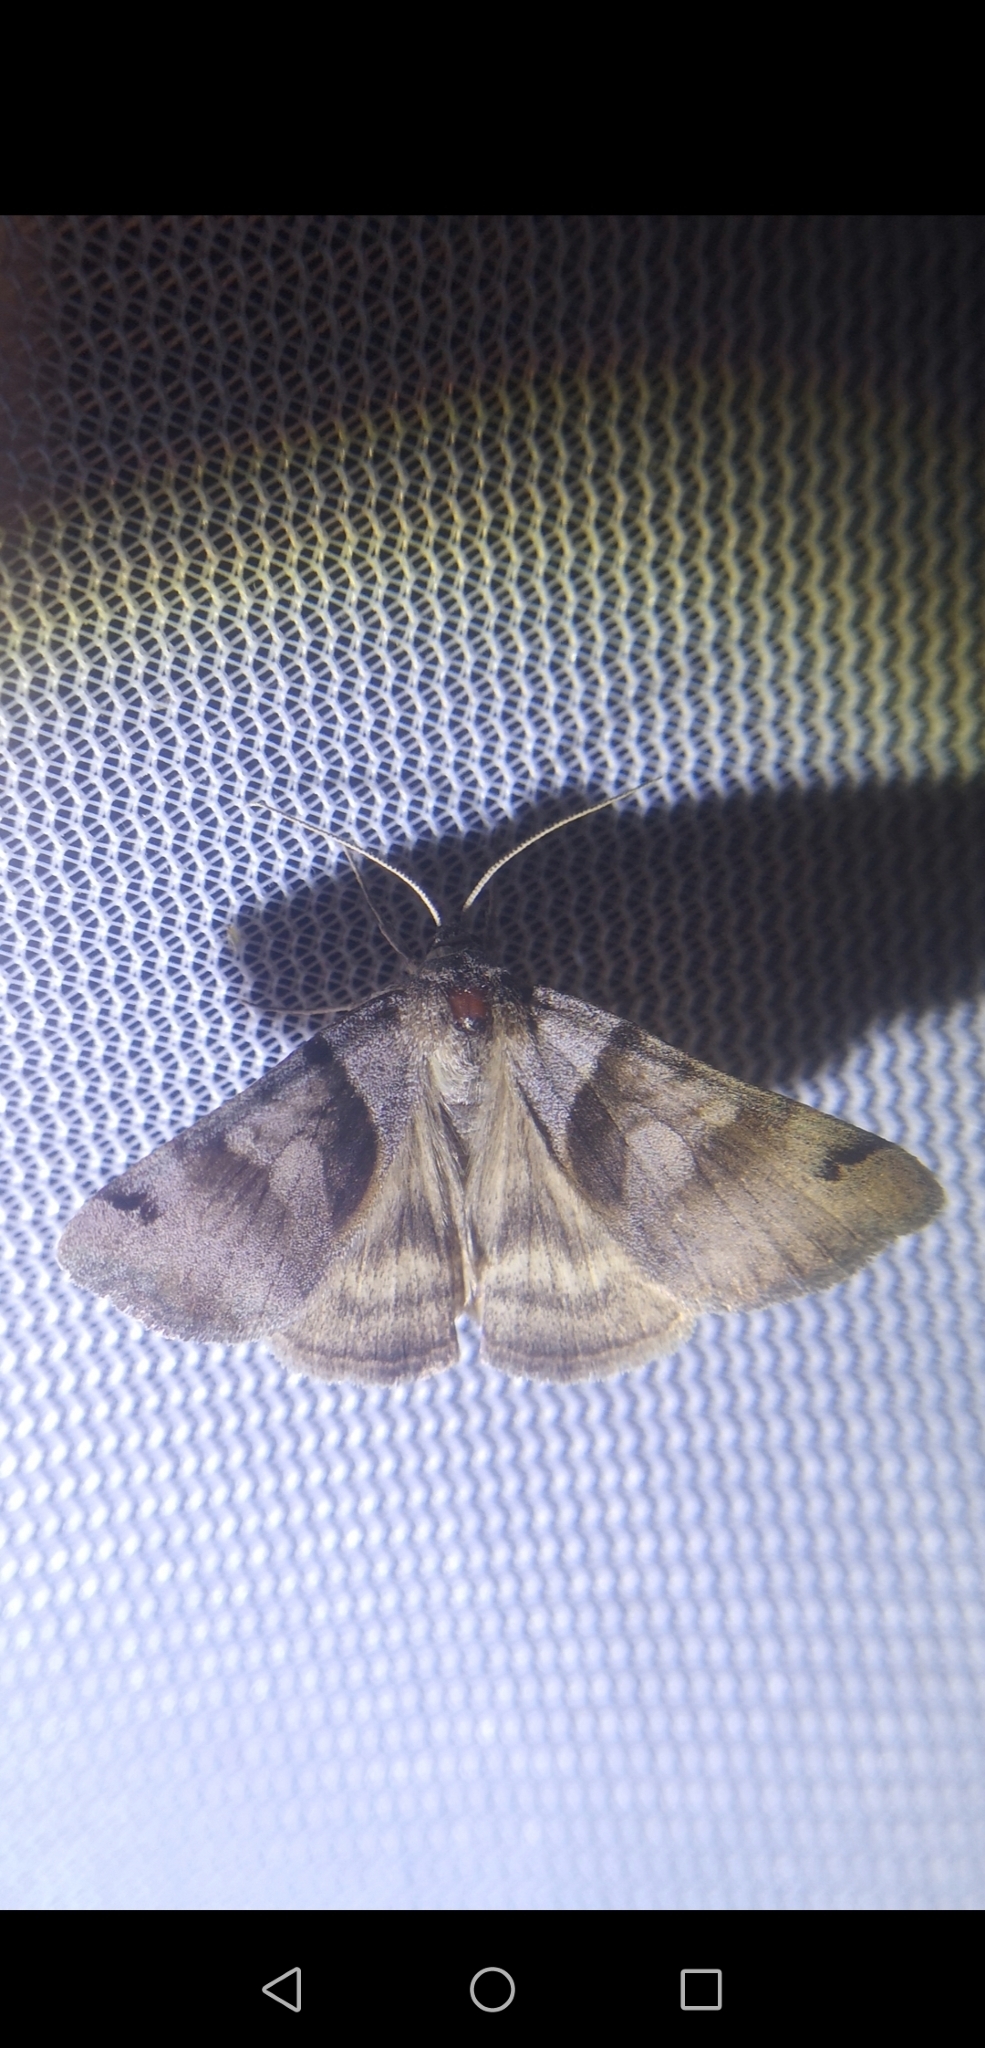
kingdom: Animalia
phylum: Arthropoda
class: Insecta
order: Lepidoptera
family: Erebidae
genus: Caenurgina
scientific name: Caenurgina erechtea
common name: Forage looper moth
